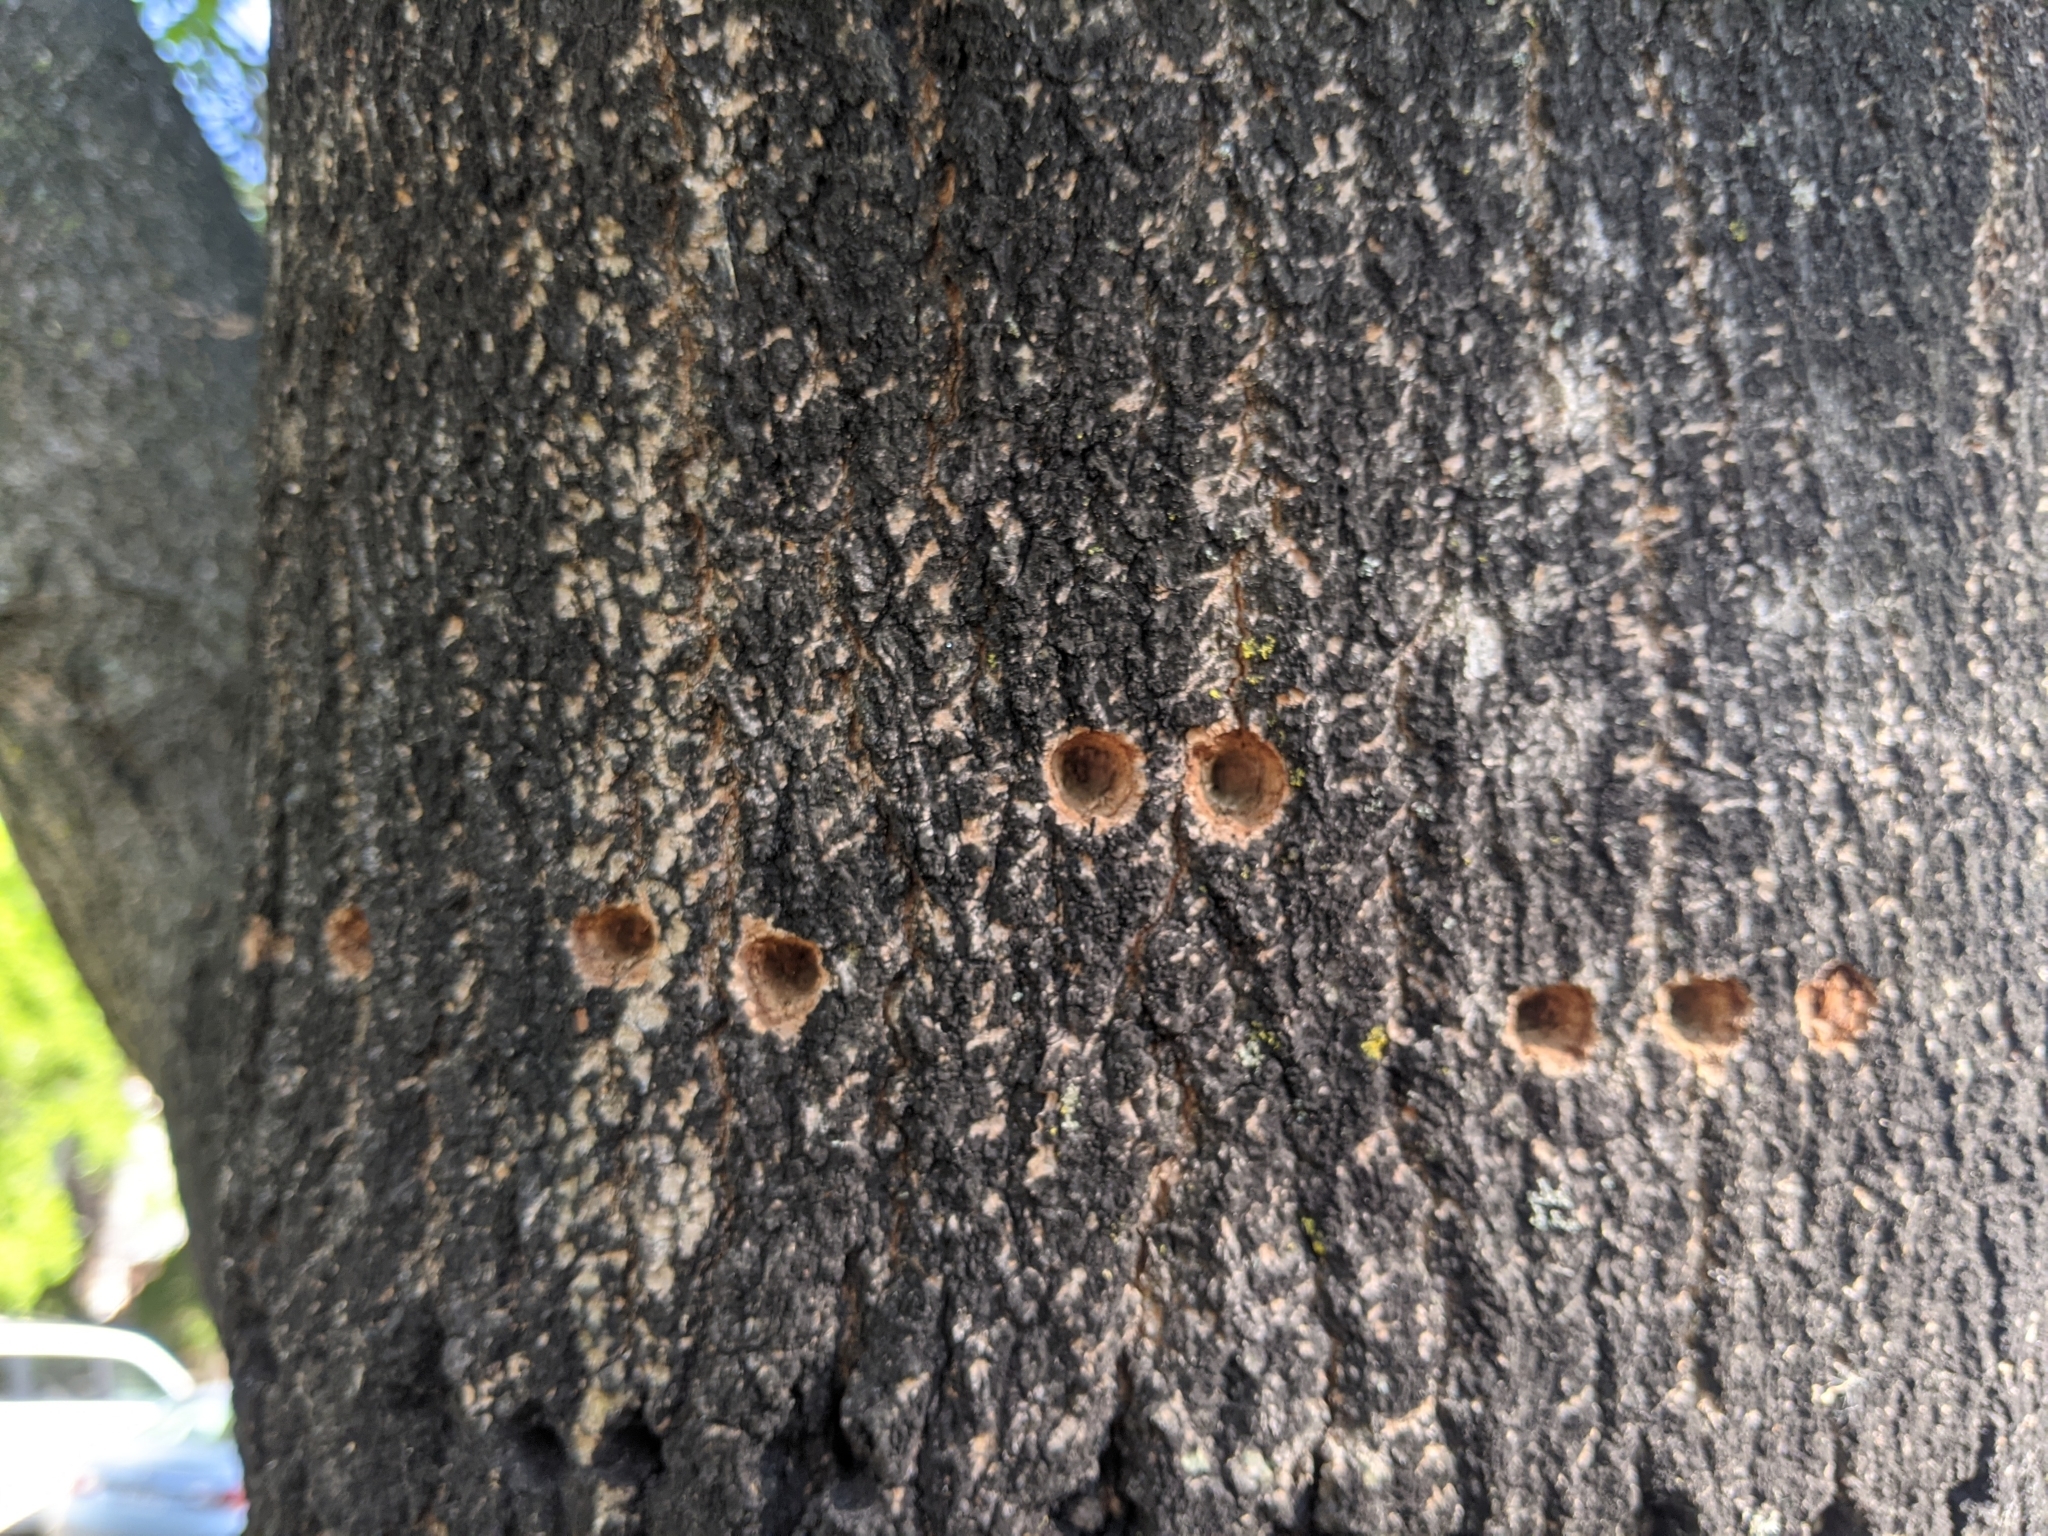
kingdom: Animalia
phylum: Chordata
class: Aves
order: Piciformes
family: Picidae
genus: Sphyrapicus
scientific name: Sphyrapicus varius
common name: Yellow-bellied sapsucker
